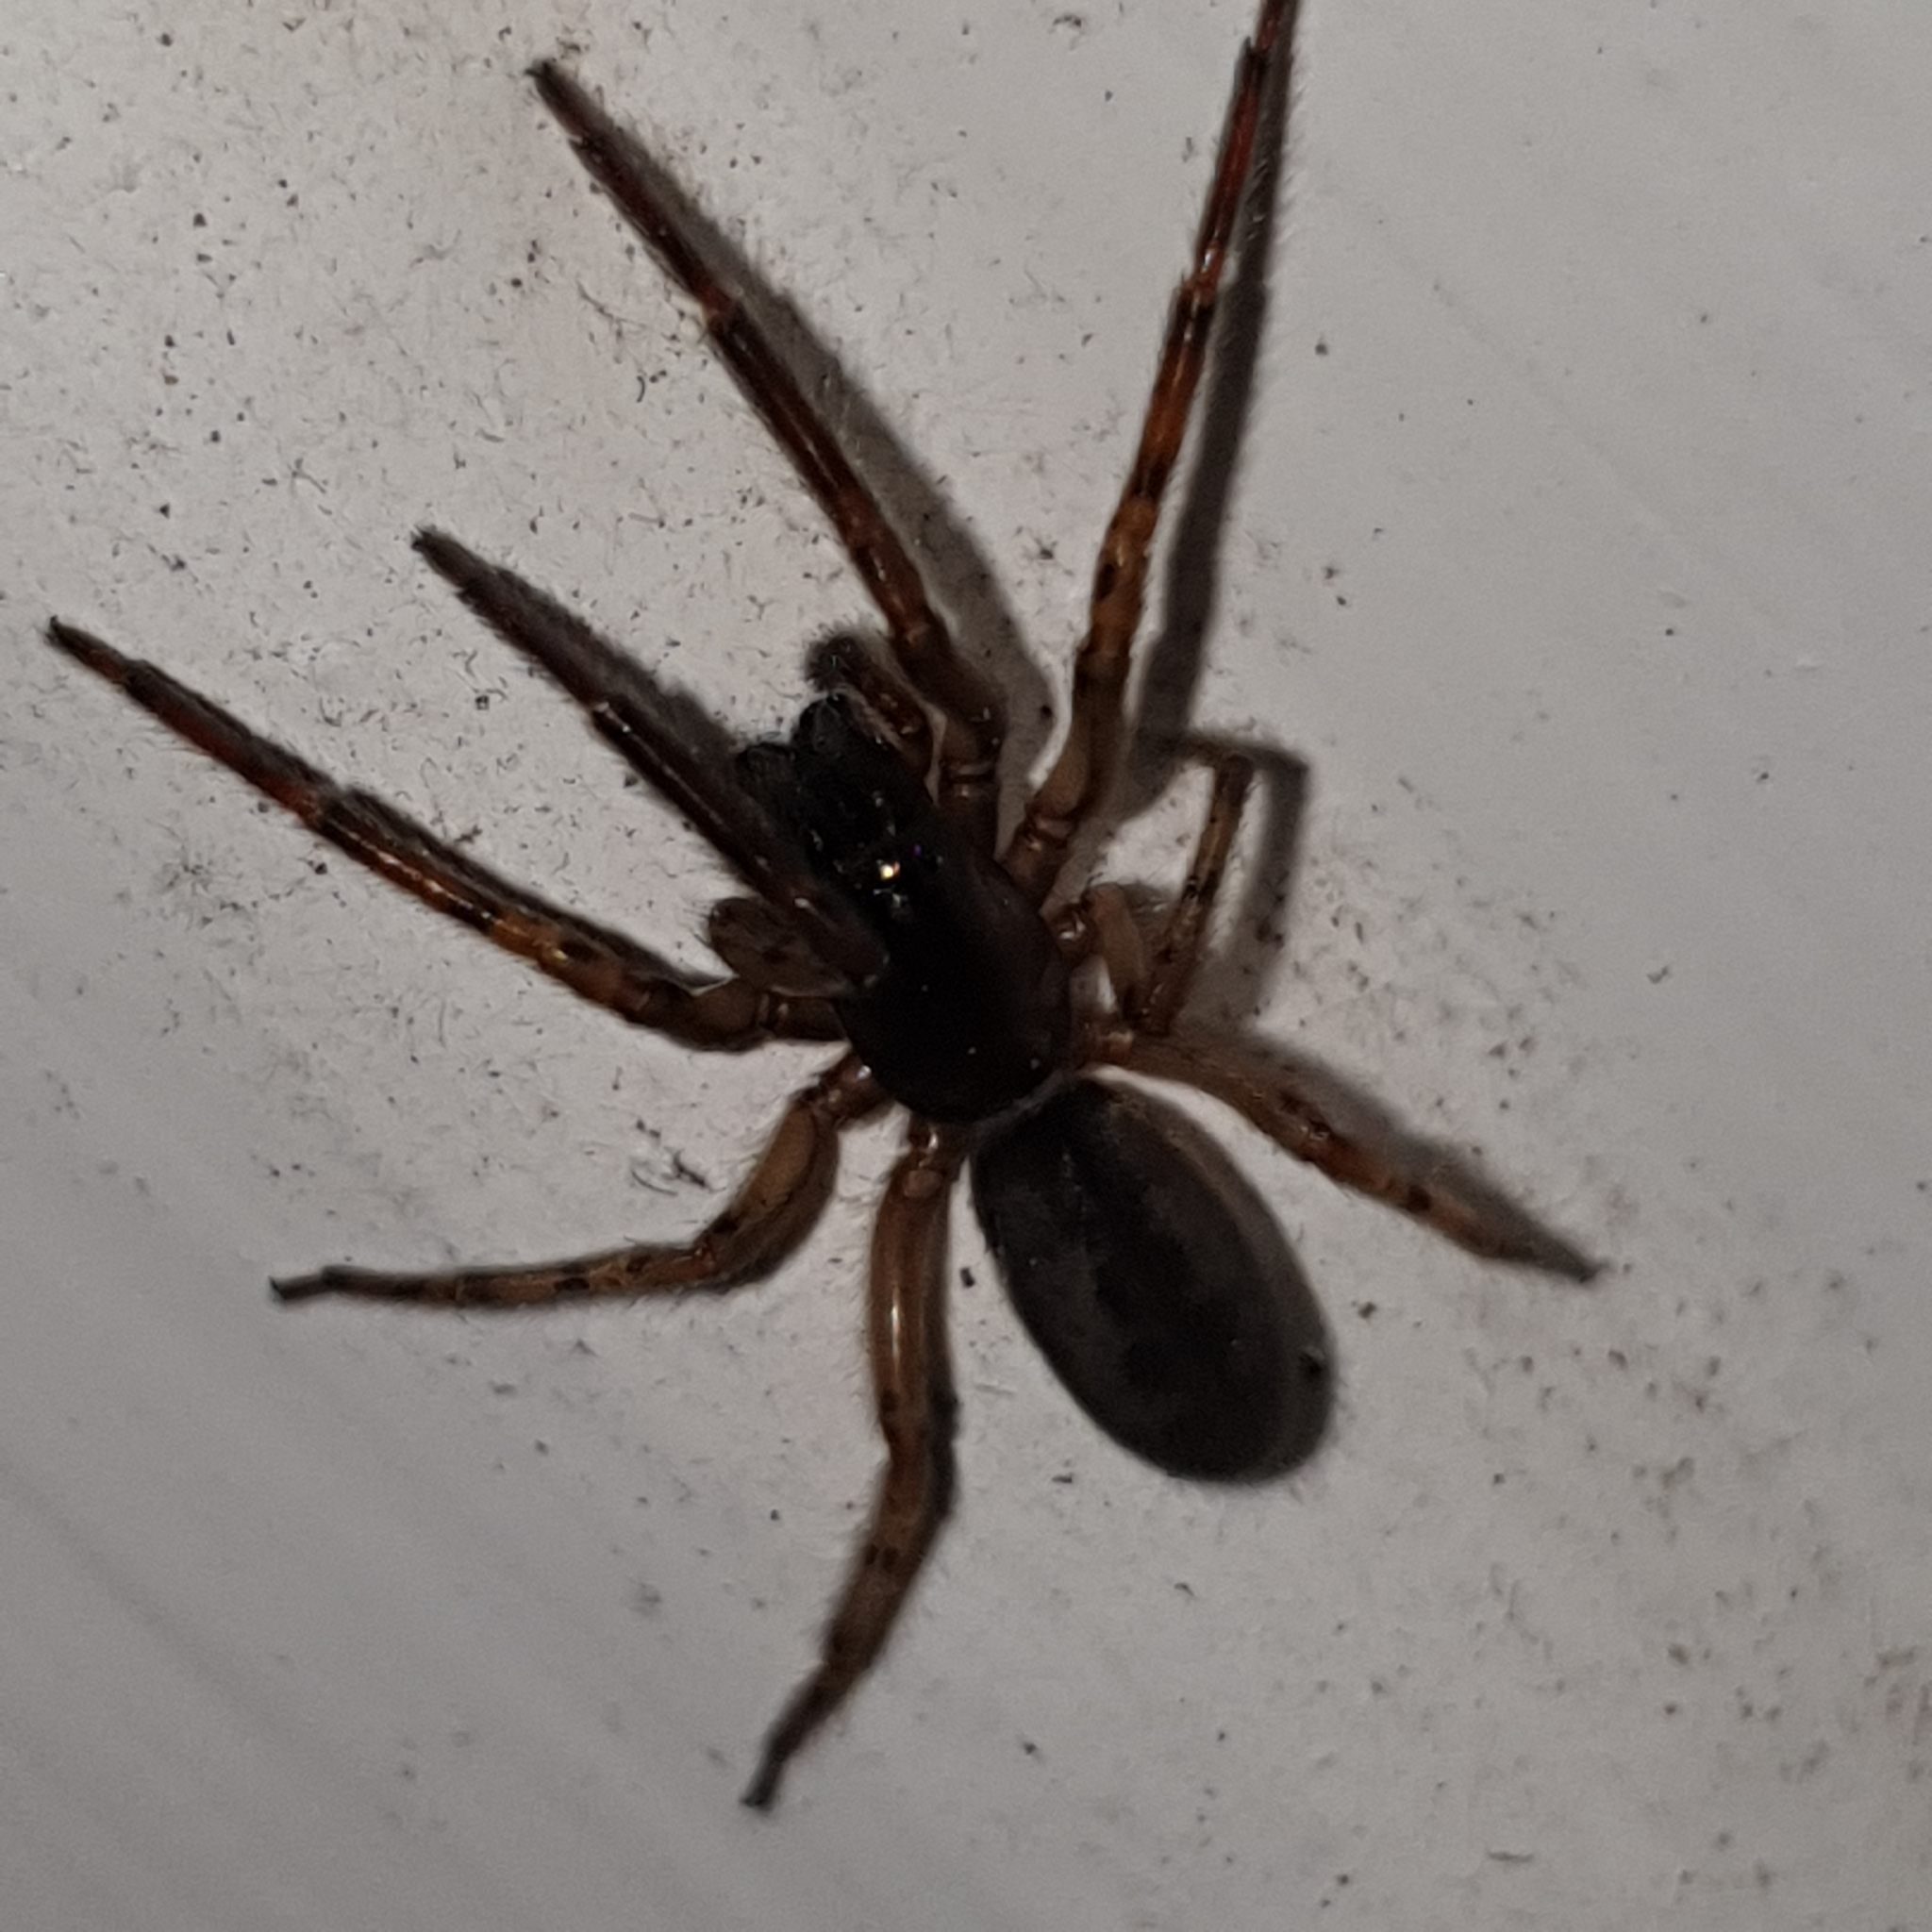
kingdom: Animalia
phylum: Arthropoda
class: Arachnida
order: Araneae
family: Segestriidae
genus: Segestria
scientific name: Segestria senoculata
